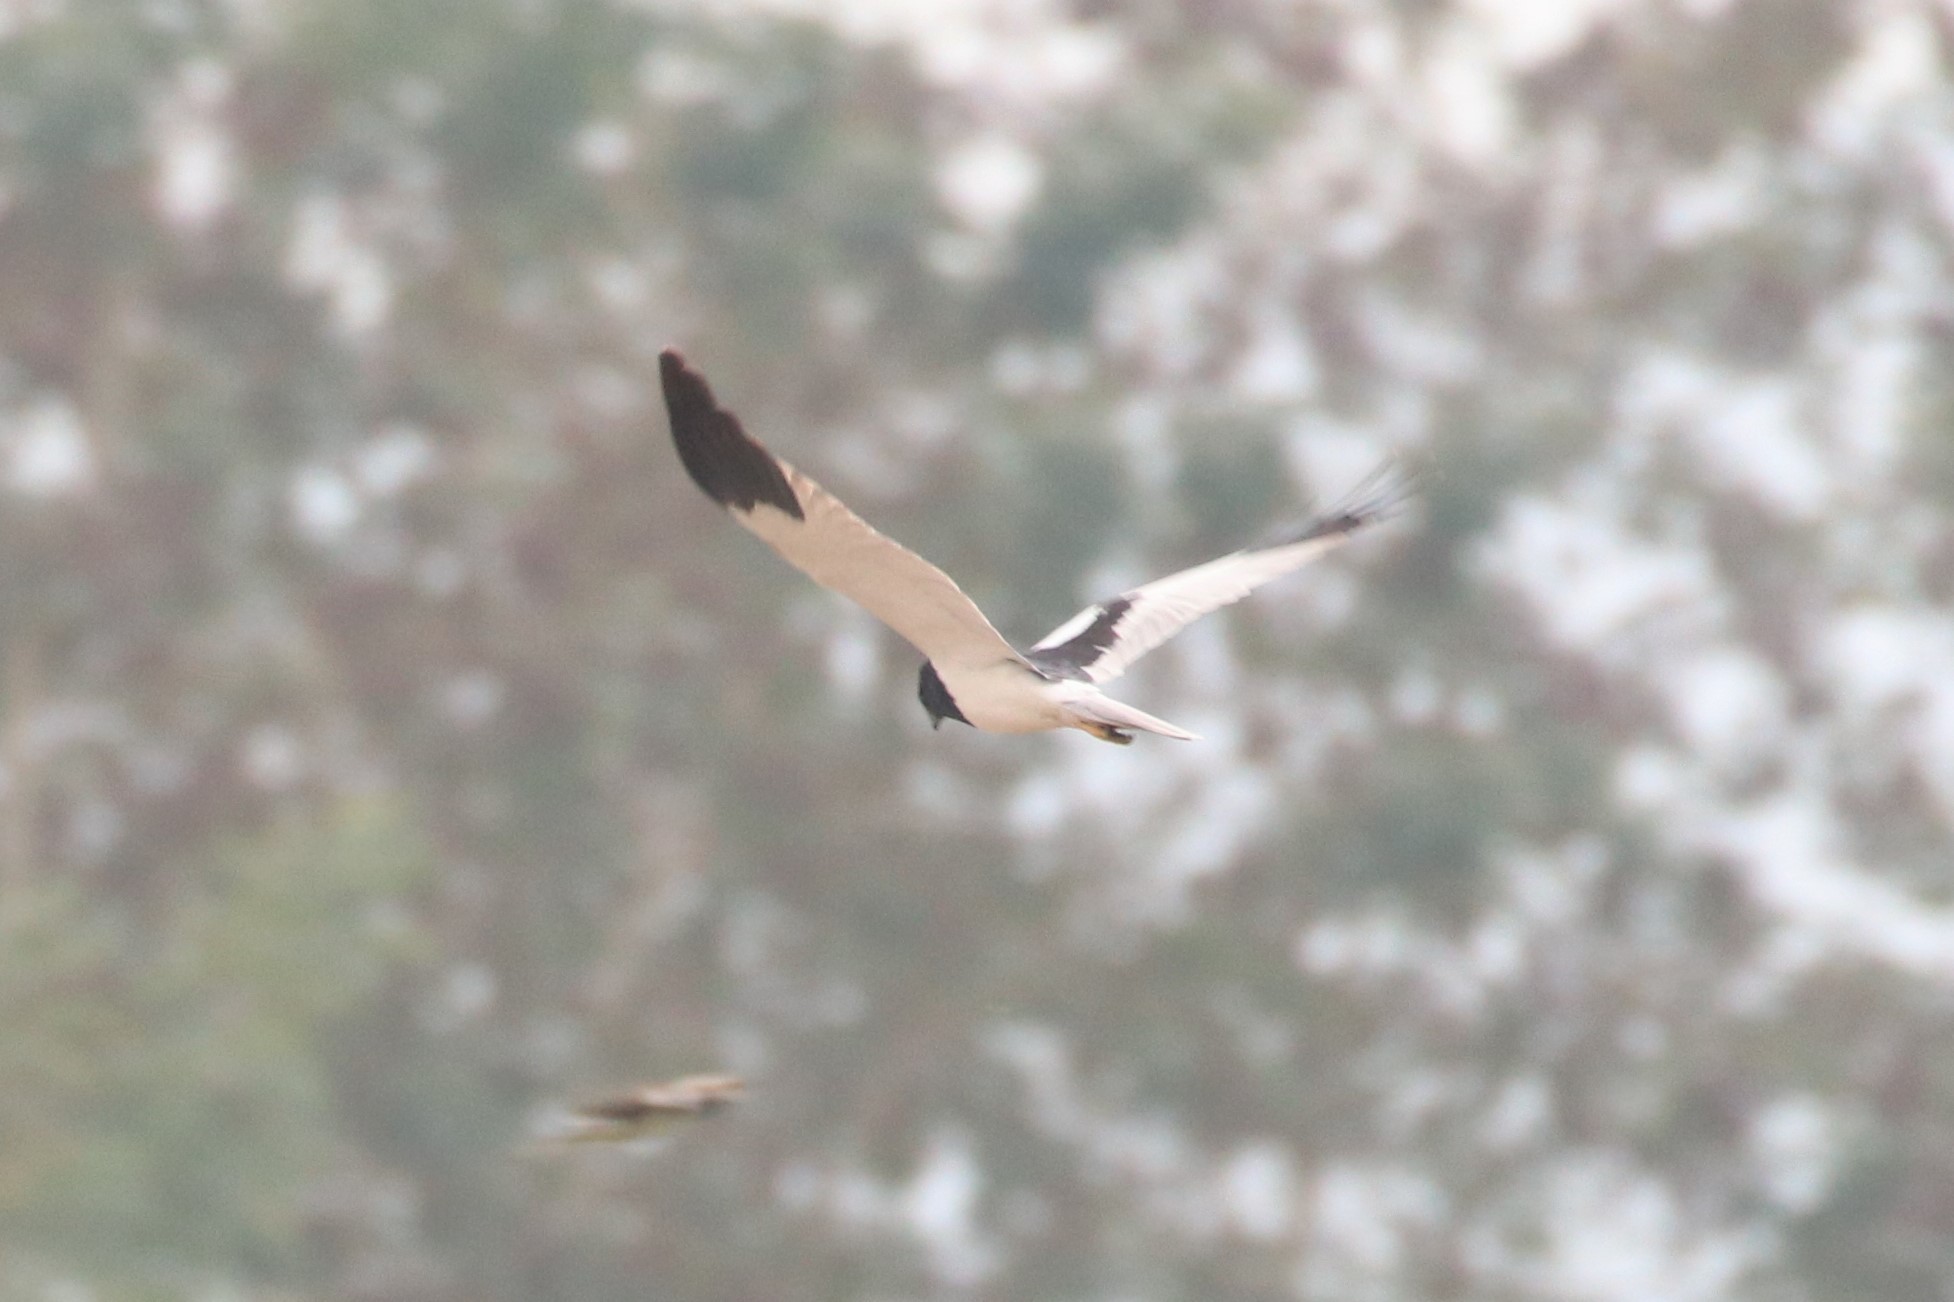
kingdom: Animalia
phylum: Chordata
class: Aves
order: Accipitriformes
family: Accipitridae
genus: Circus
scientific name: Circus melanoleucos
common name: Pied harrier
